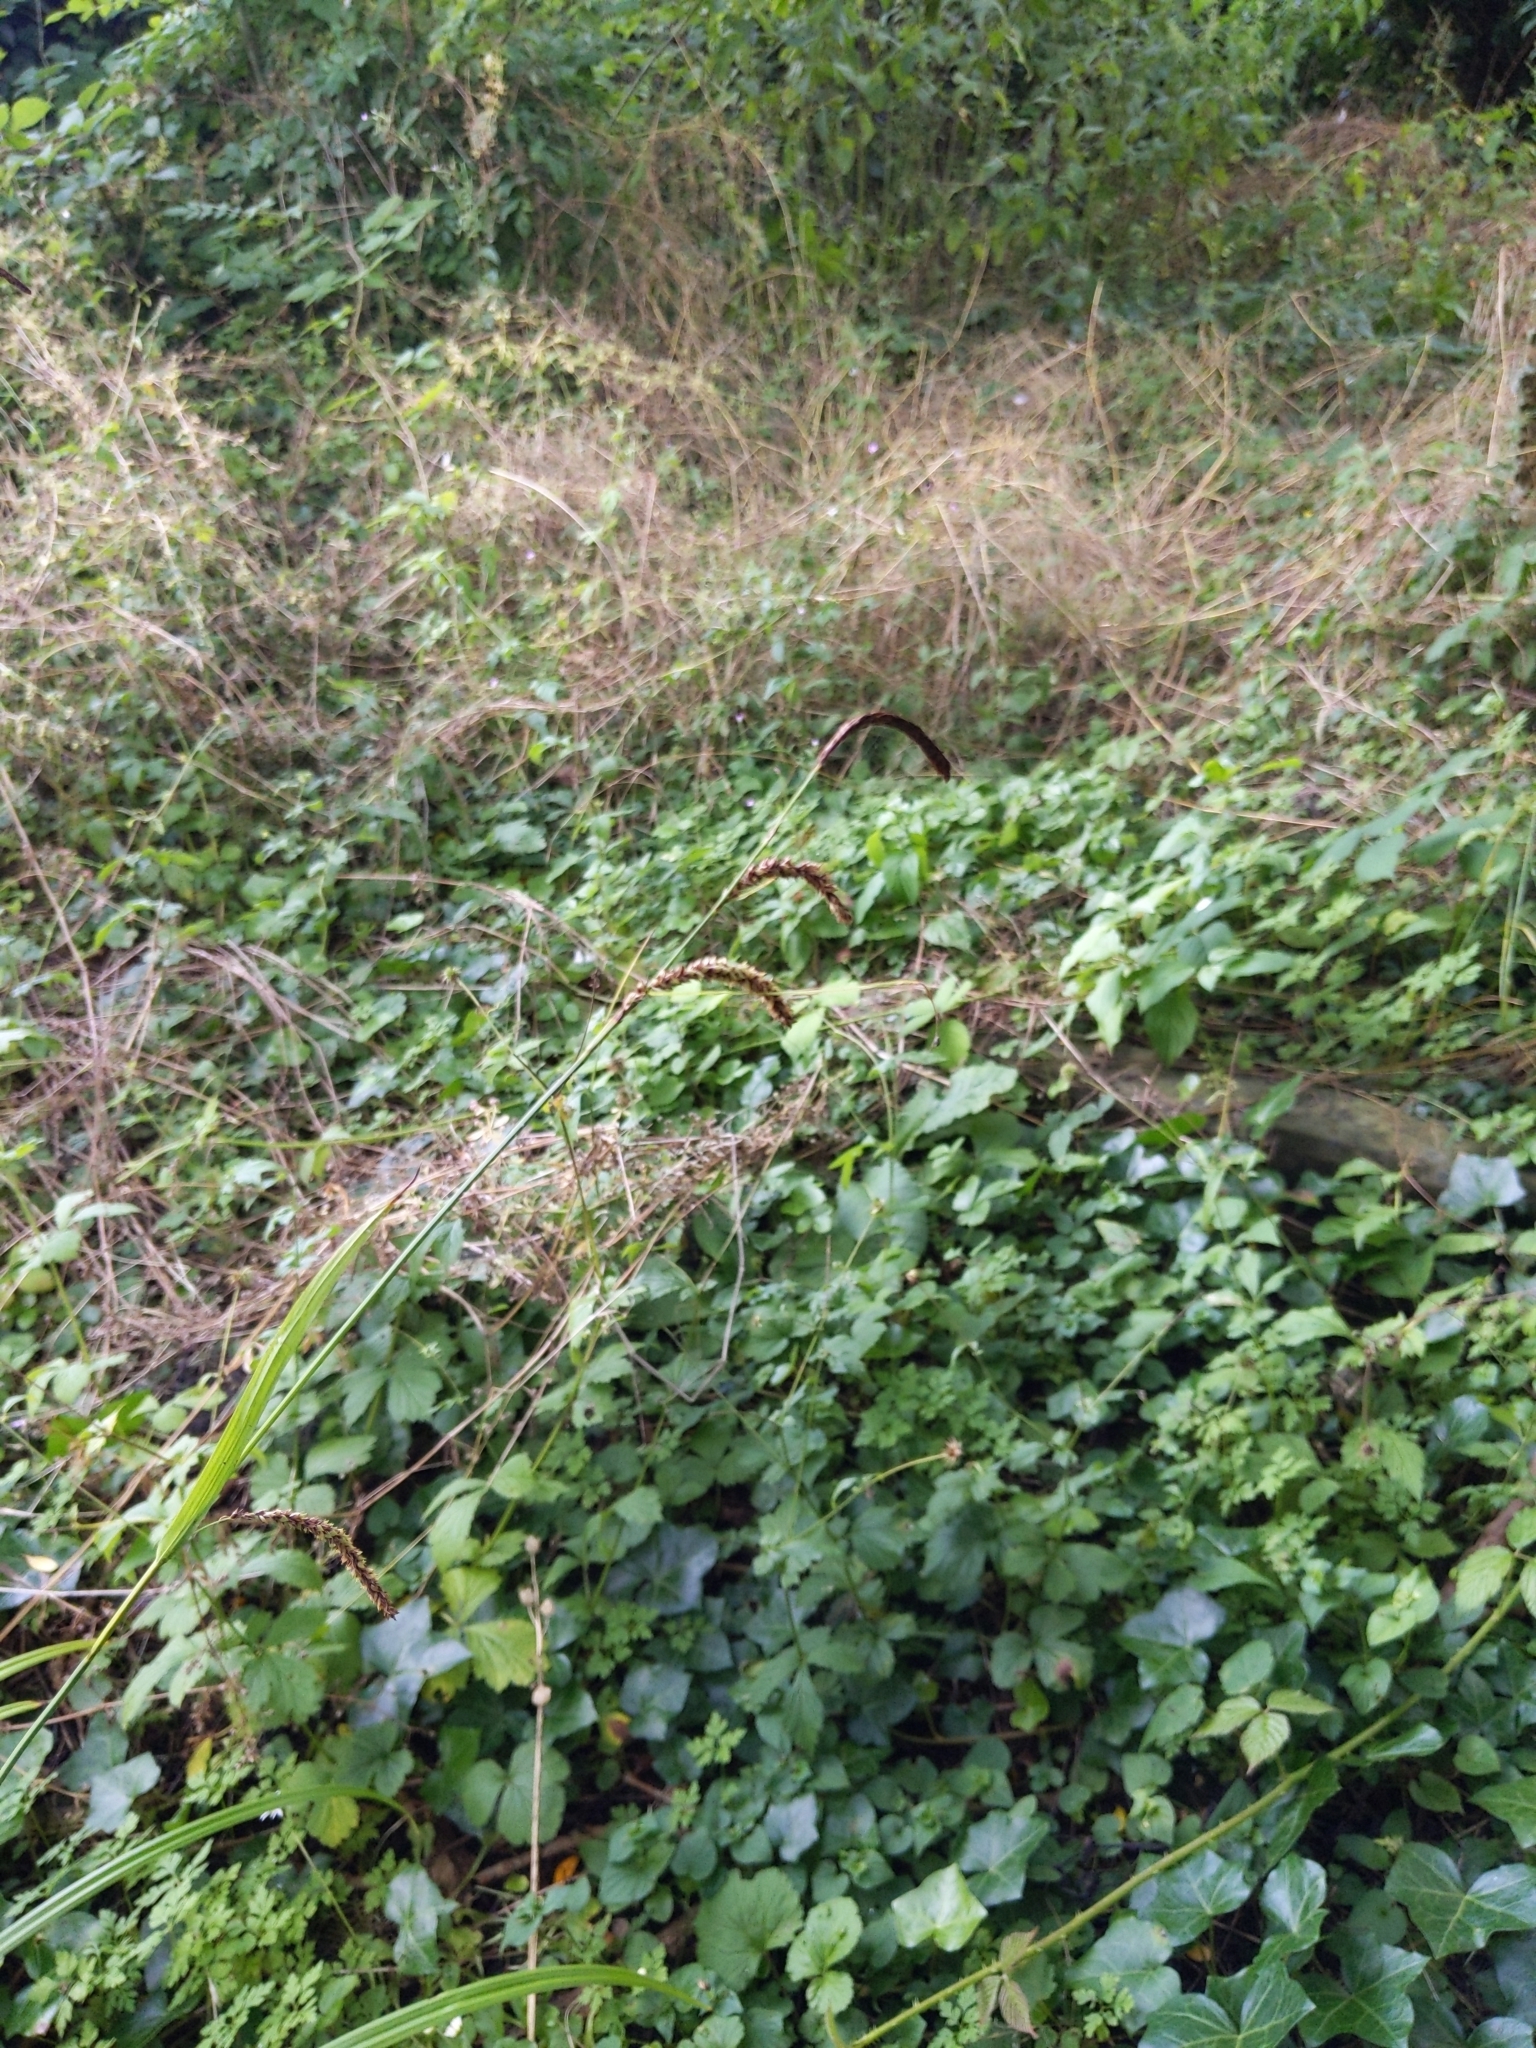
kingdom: Plantae
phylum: Tracheophyta
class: Liliopsida
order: Poales
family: Cyperaceae
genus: Carex
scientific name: Carex pendula
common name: Pendulous sedge
